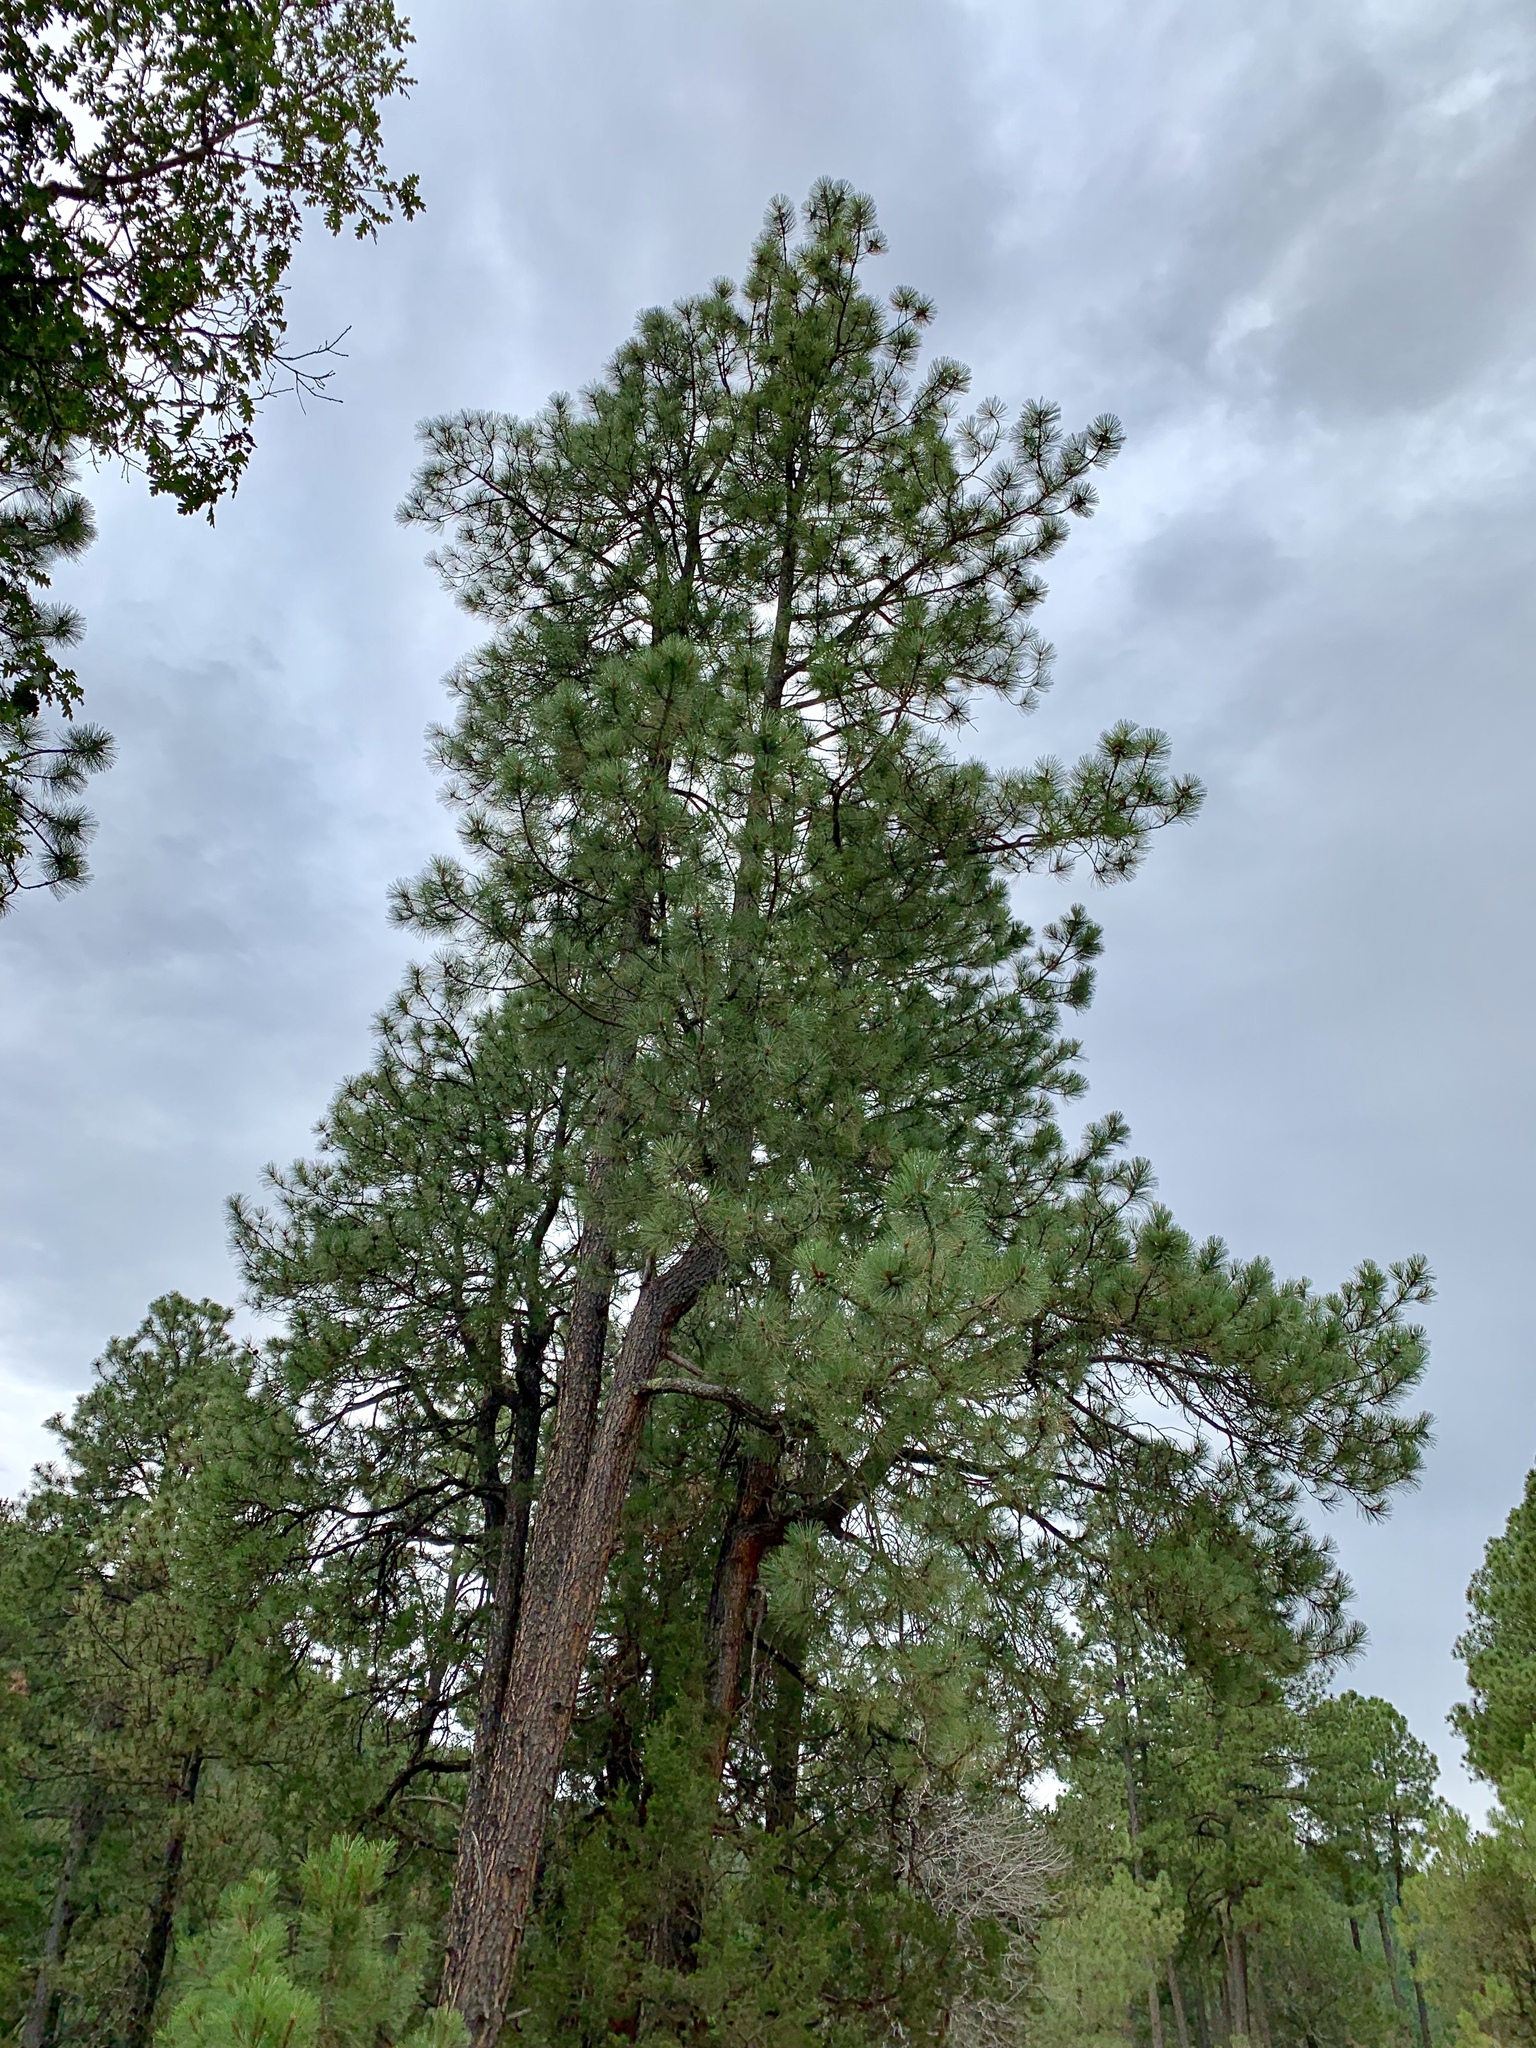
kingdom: Plantae
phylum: Tracheophyta
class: Pinopsida
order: Pinales
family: Pinaceae
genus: Pinus
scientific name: Pinus ponderosa
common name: Western yellow-pine
